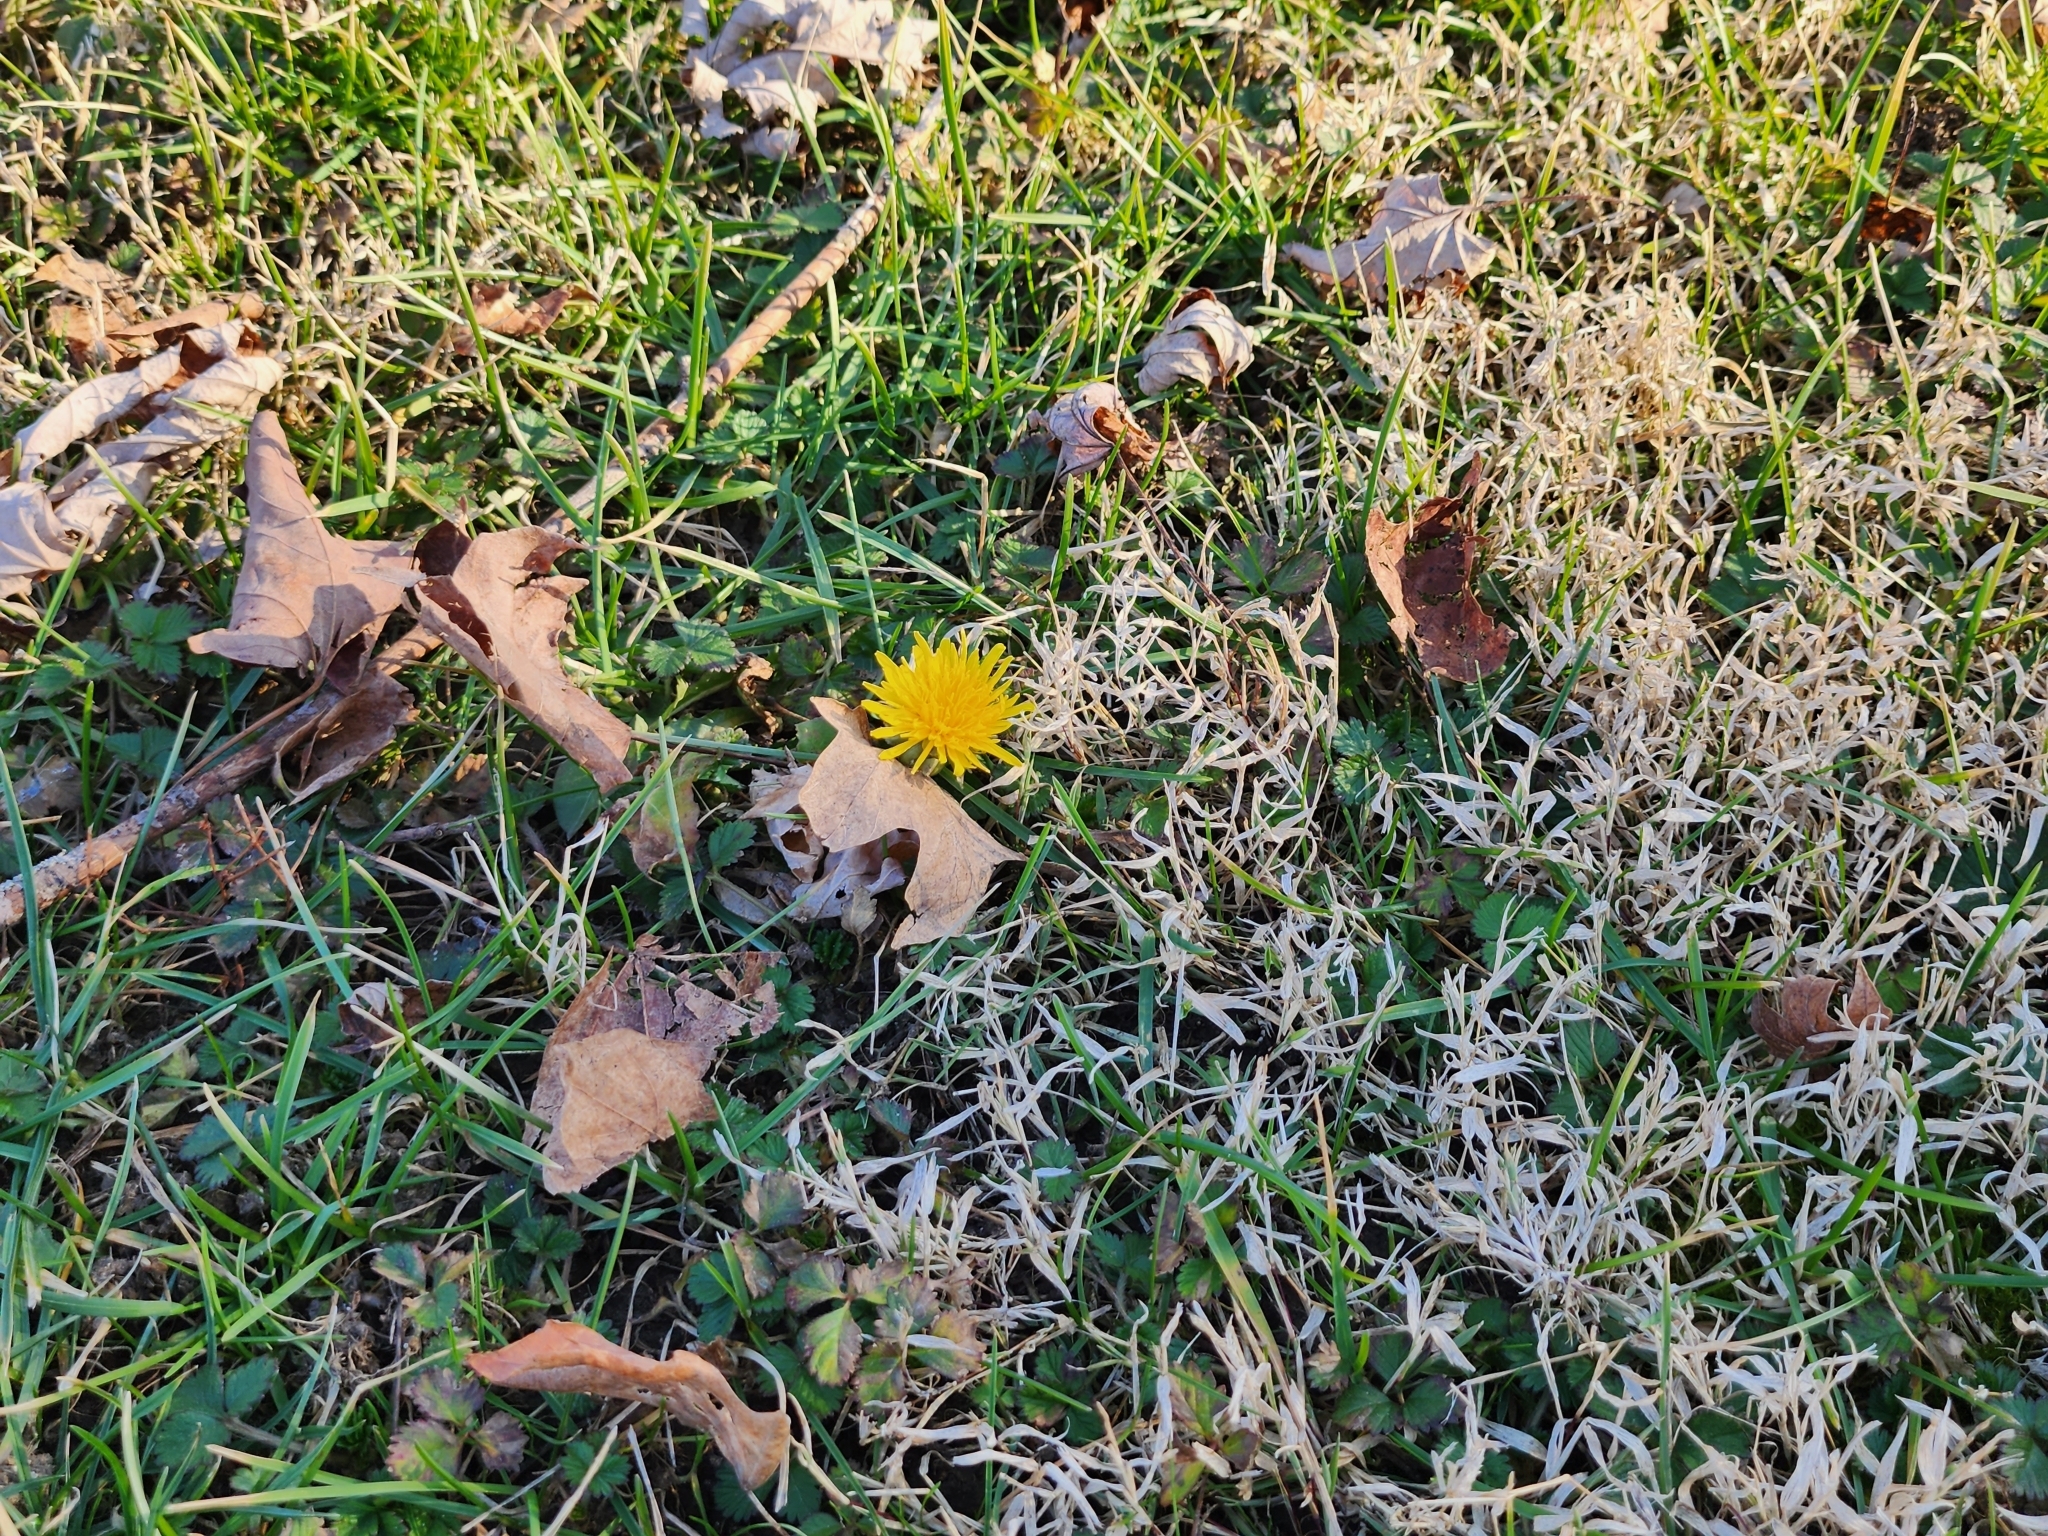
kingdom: Plantae
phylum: Tracheophyta
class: Magnoliopsida
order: Asterales
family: Asteraceae
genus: Taraxacum
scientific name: Taraxacum officinale
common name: Common dandelion
